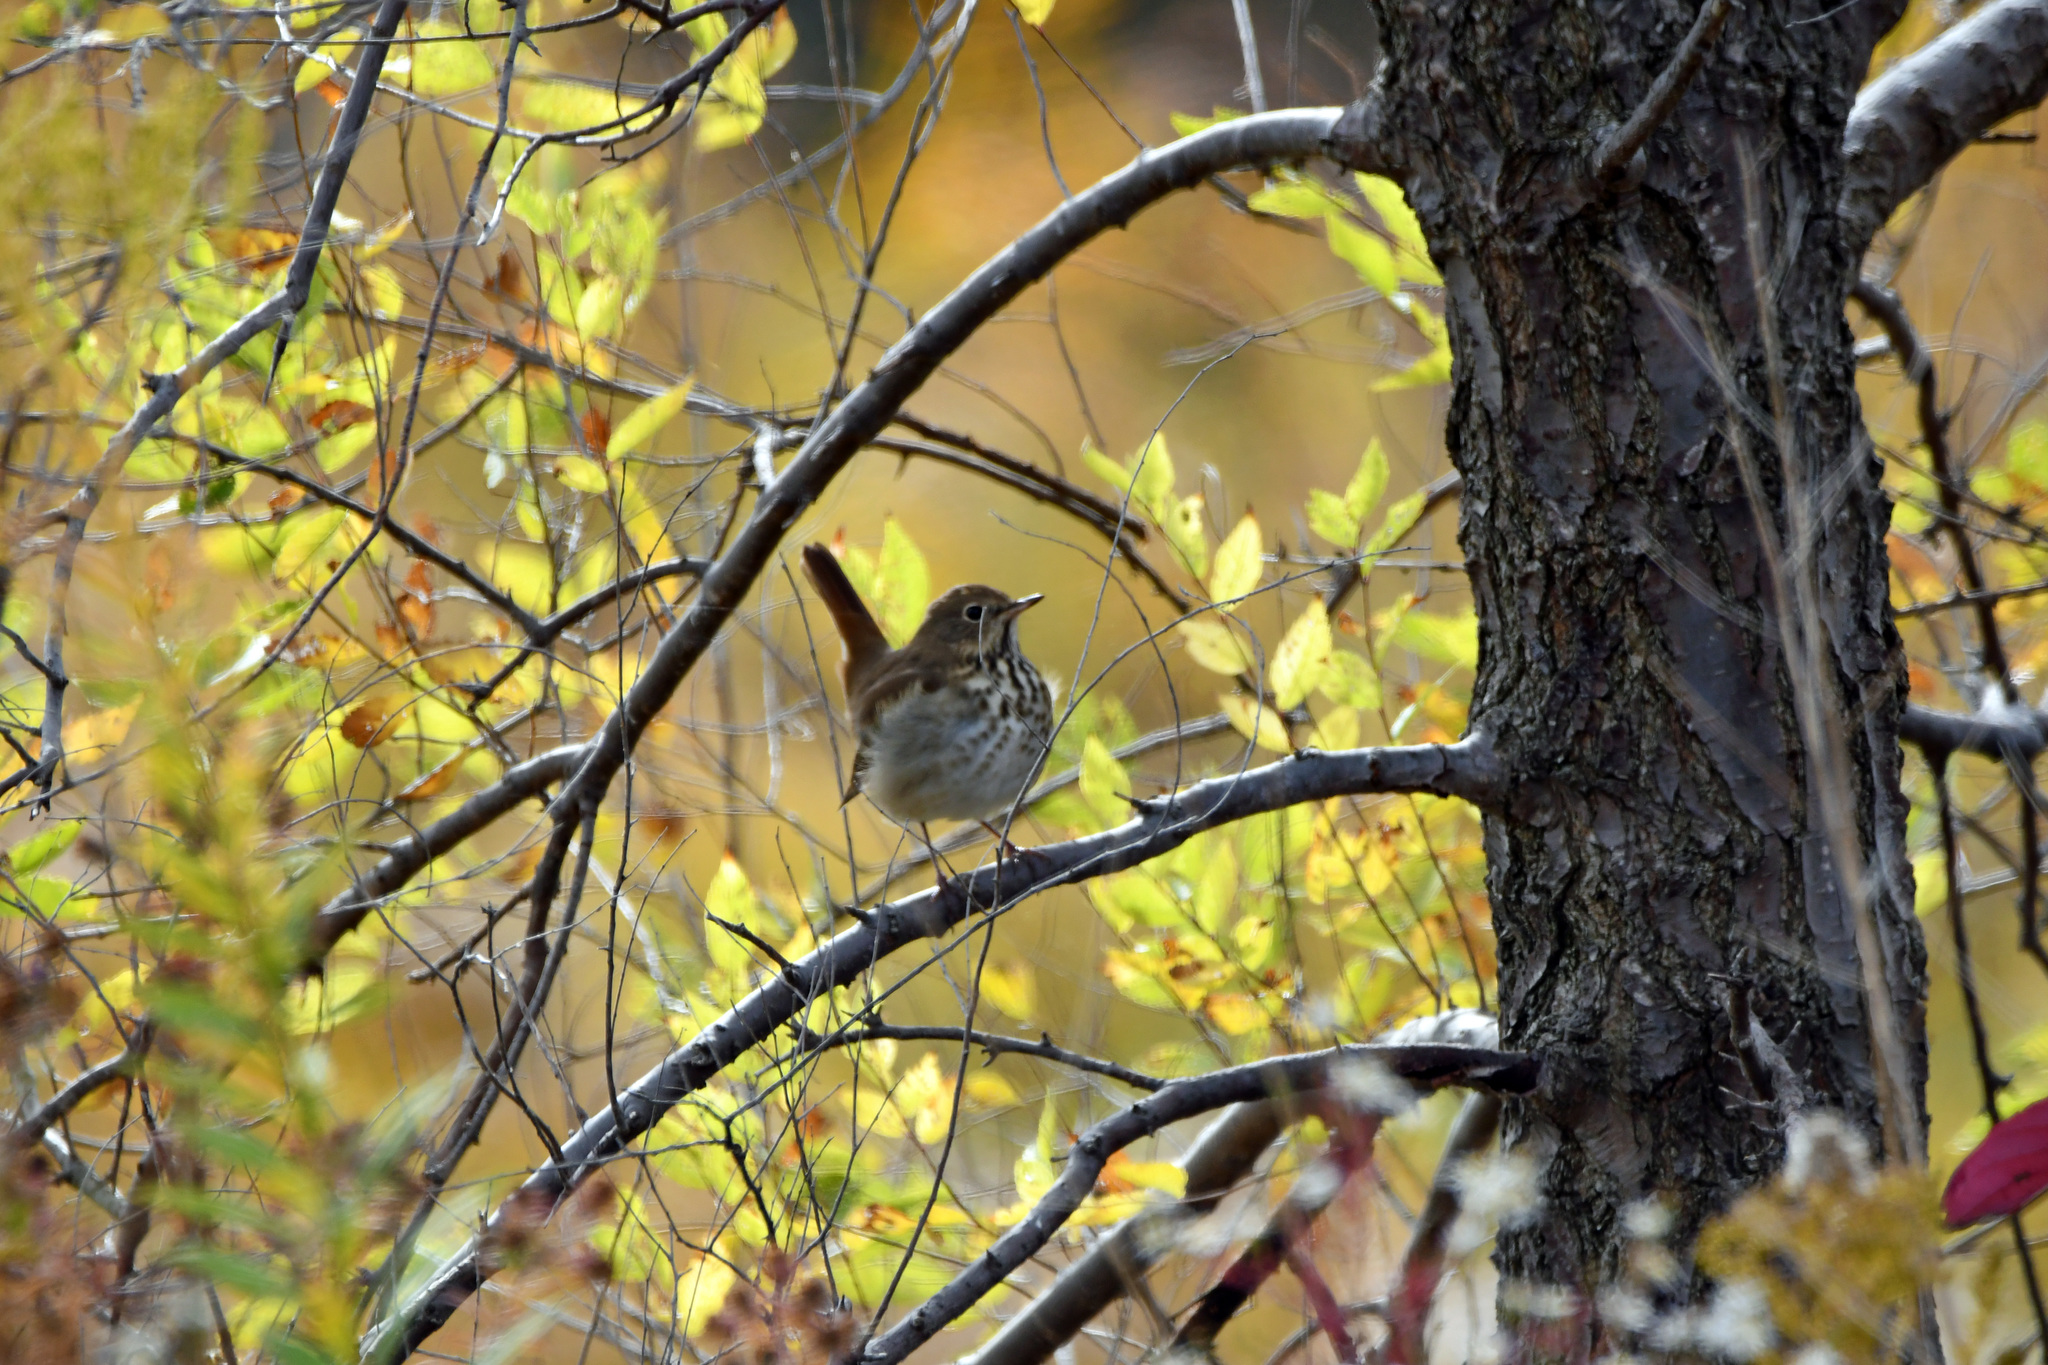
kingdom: Animalia
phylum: Chordata
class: Aves
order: Passeriformes
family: Turdidae
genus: Catharus
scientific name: Catharus guttatus
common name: Hermit thrush
